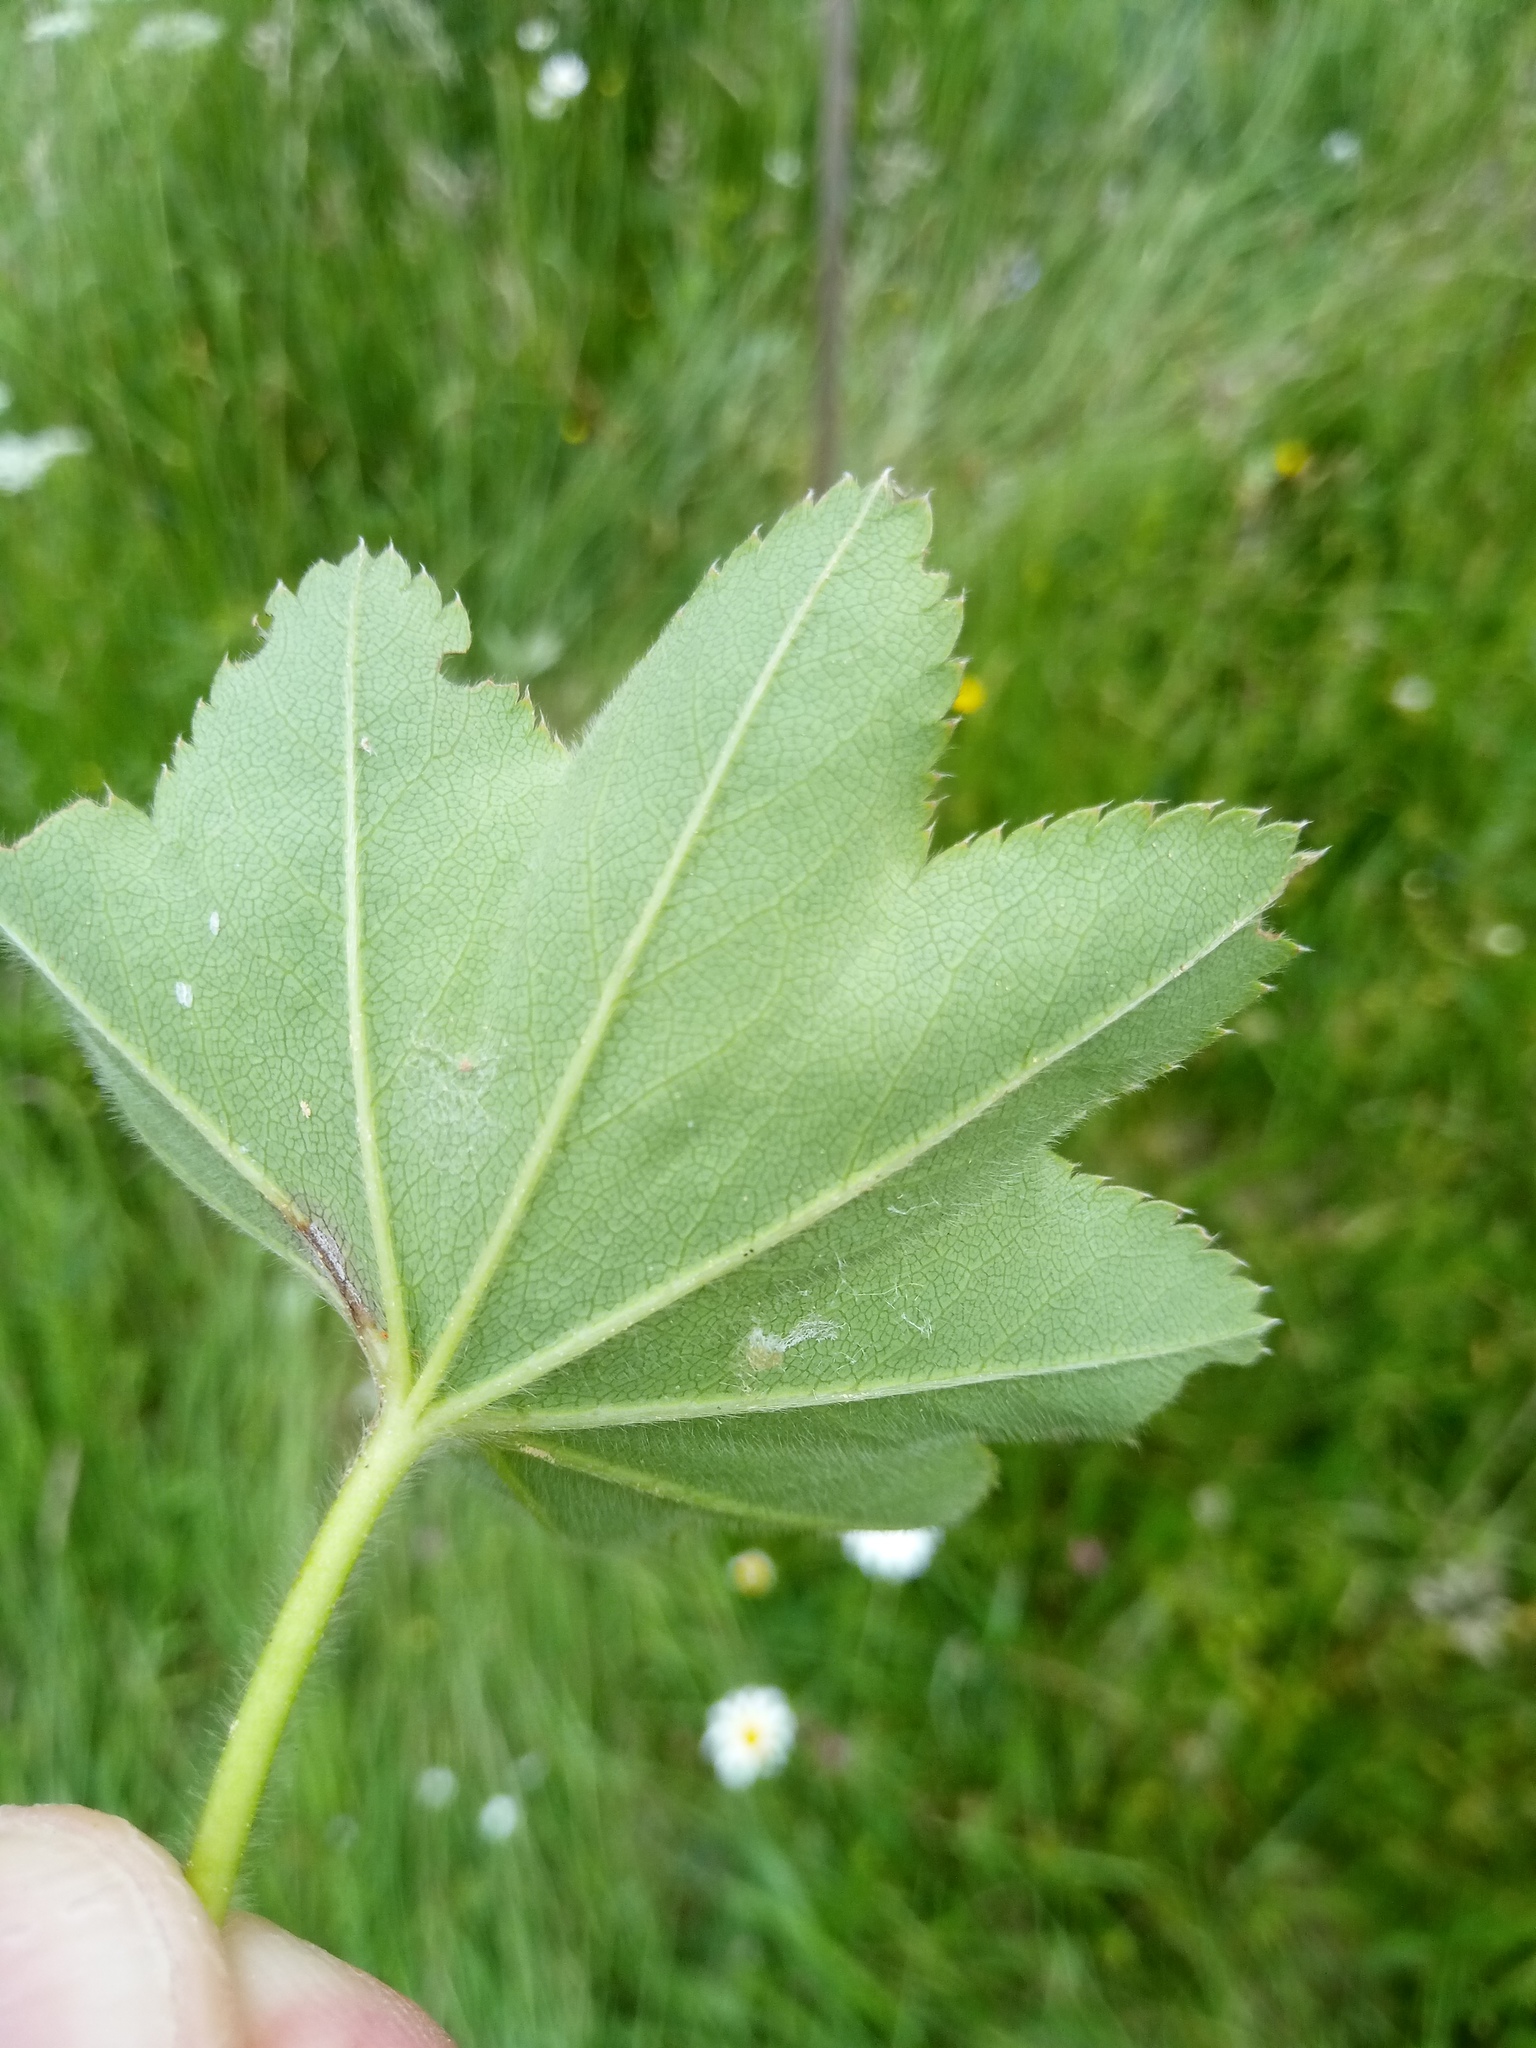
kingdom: Plantae
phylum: Tracheophyta
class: Magnoliopsida
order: Rosales
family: Rosaceae
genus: Alchemilla
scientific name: Alchemilla micans
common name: Gleaming lady's mantle
